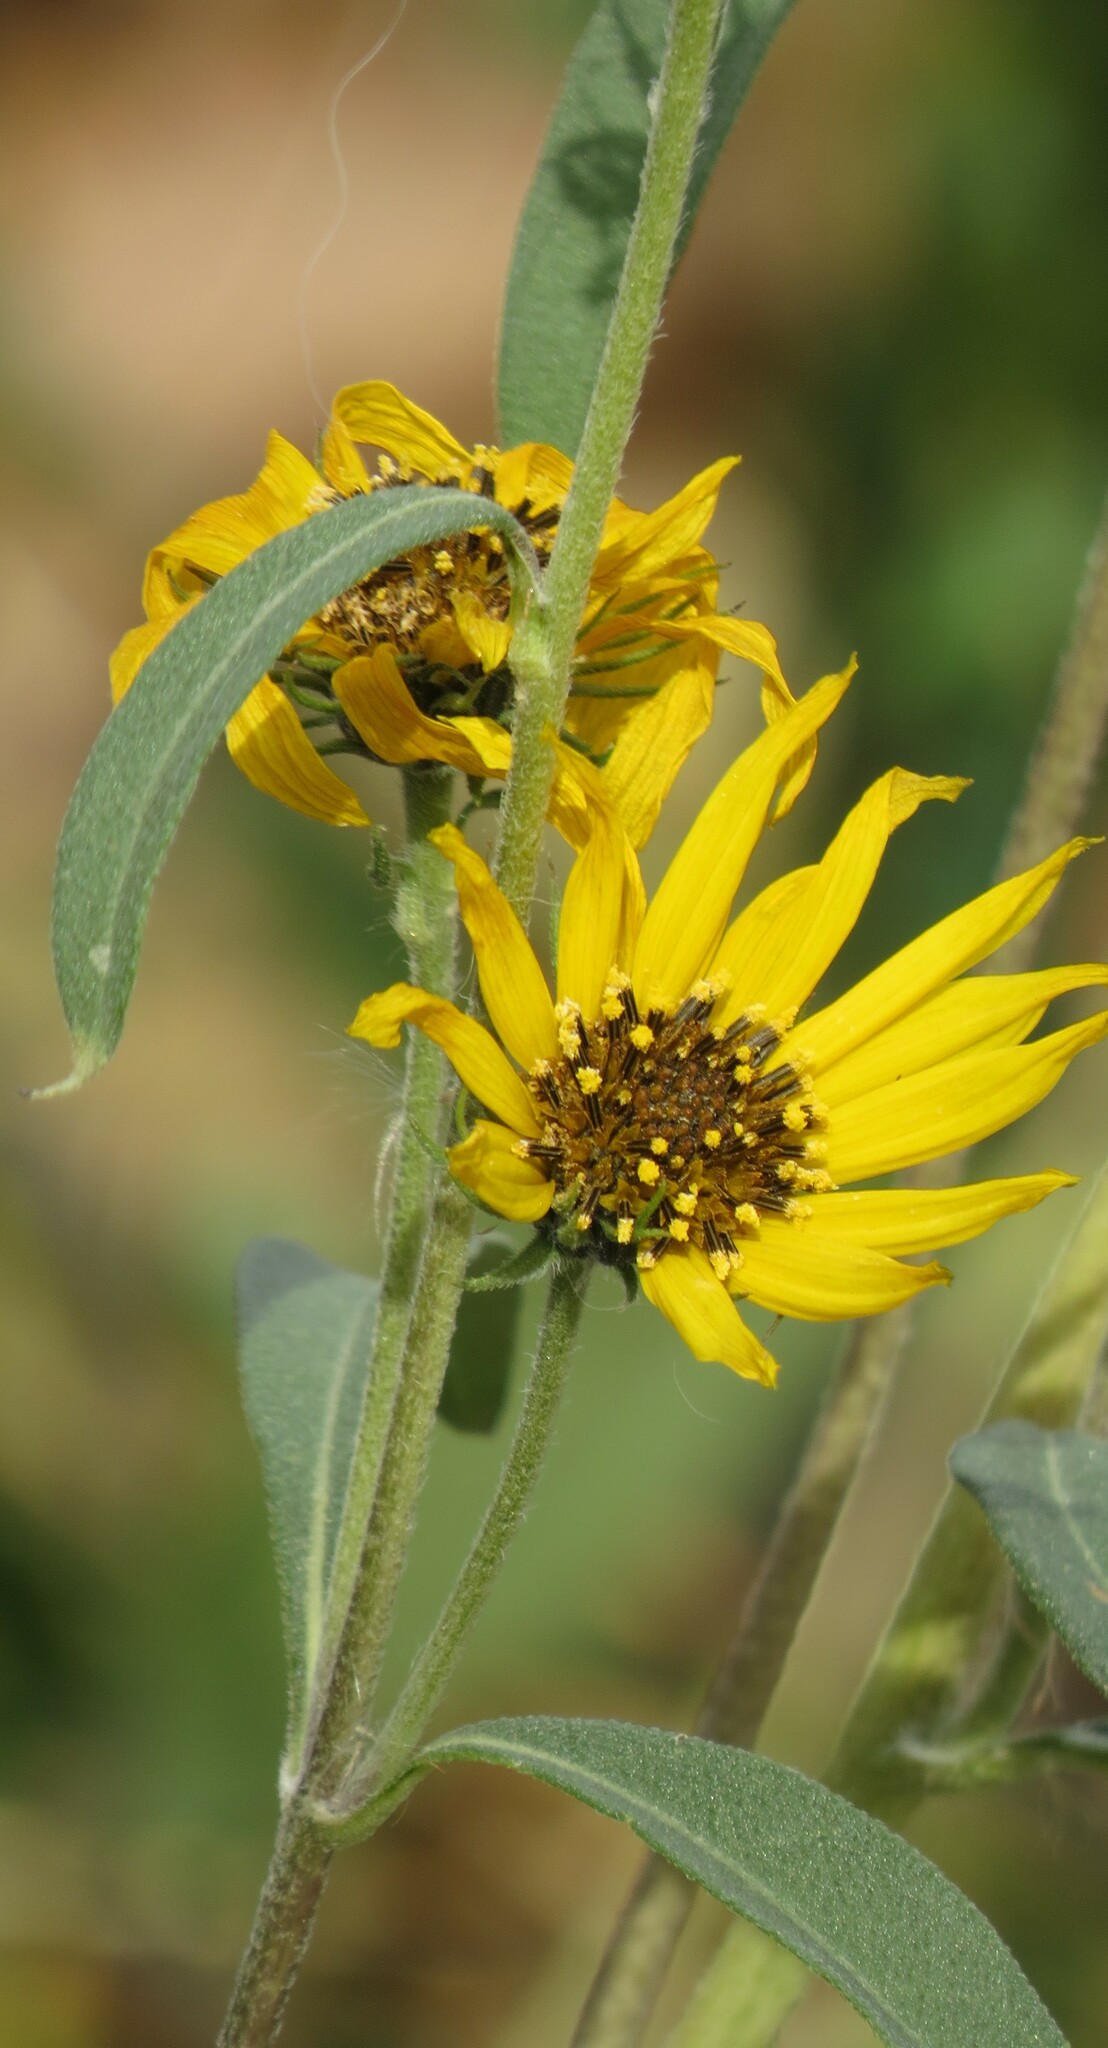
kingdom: Plantae
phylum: Tracheophyta
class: Magnoliopsida
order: Asterales
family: Asteraceae
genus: Helianthus
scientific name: Helianthus maximiliani
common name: Maximilian's sunflower
